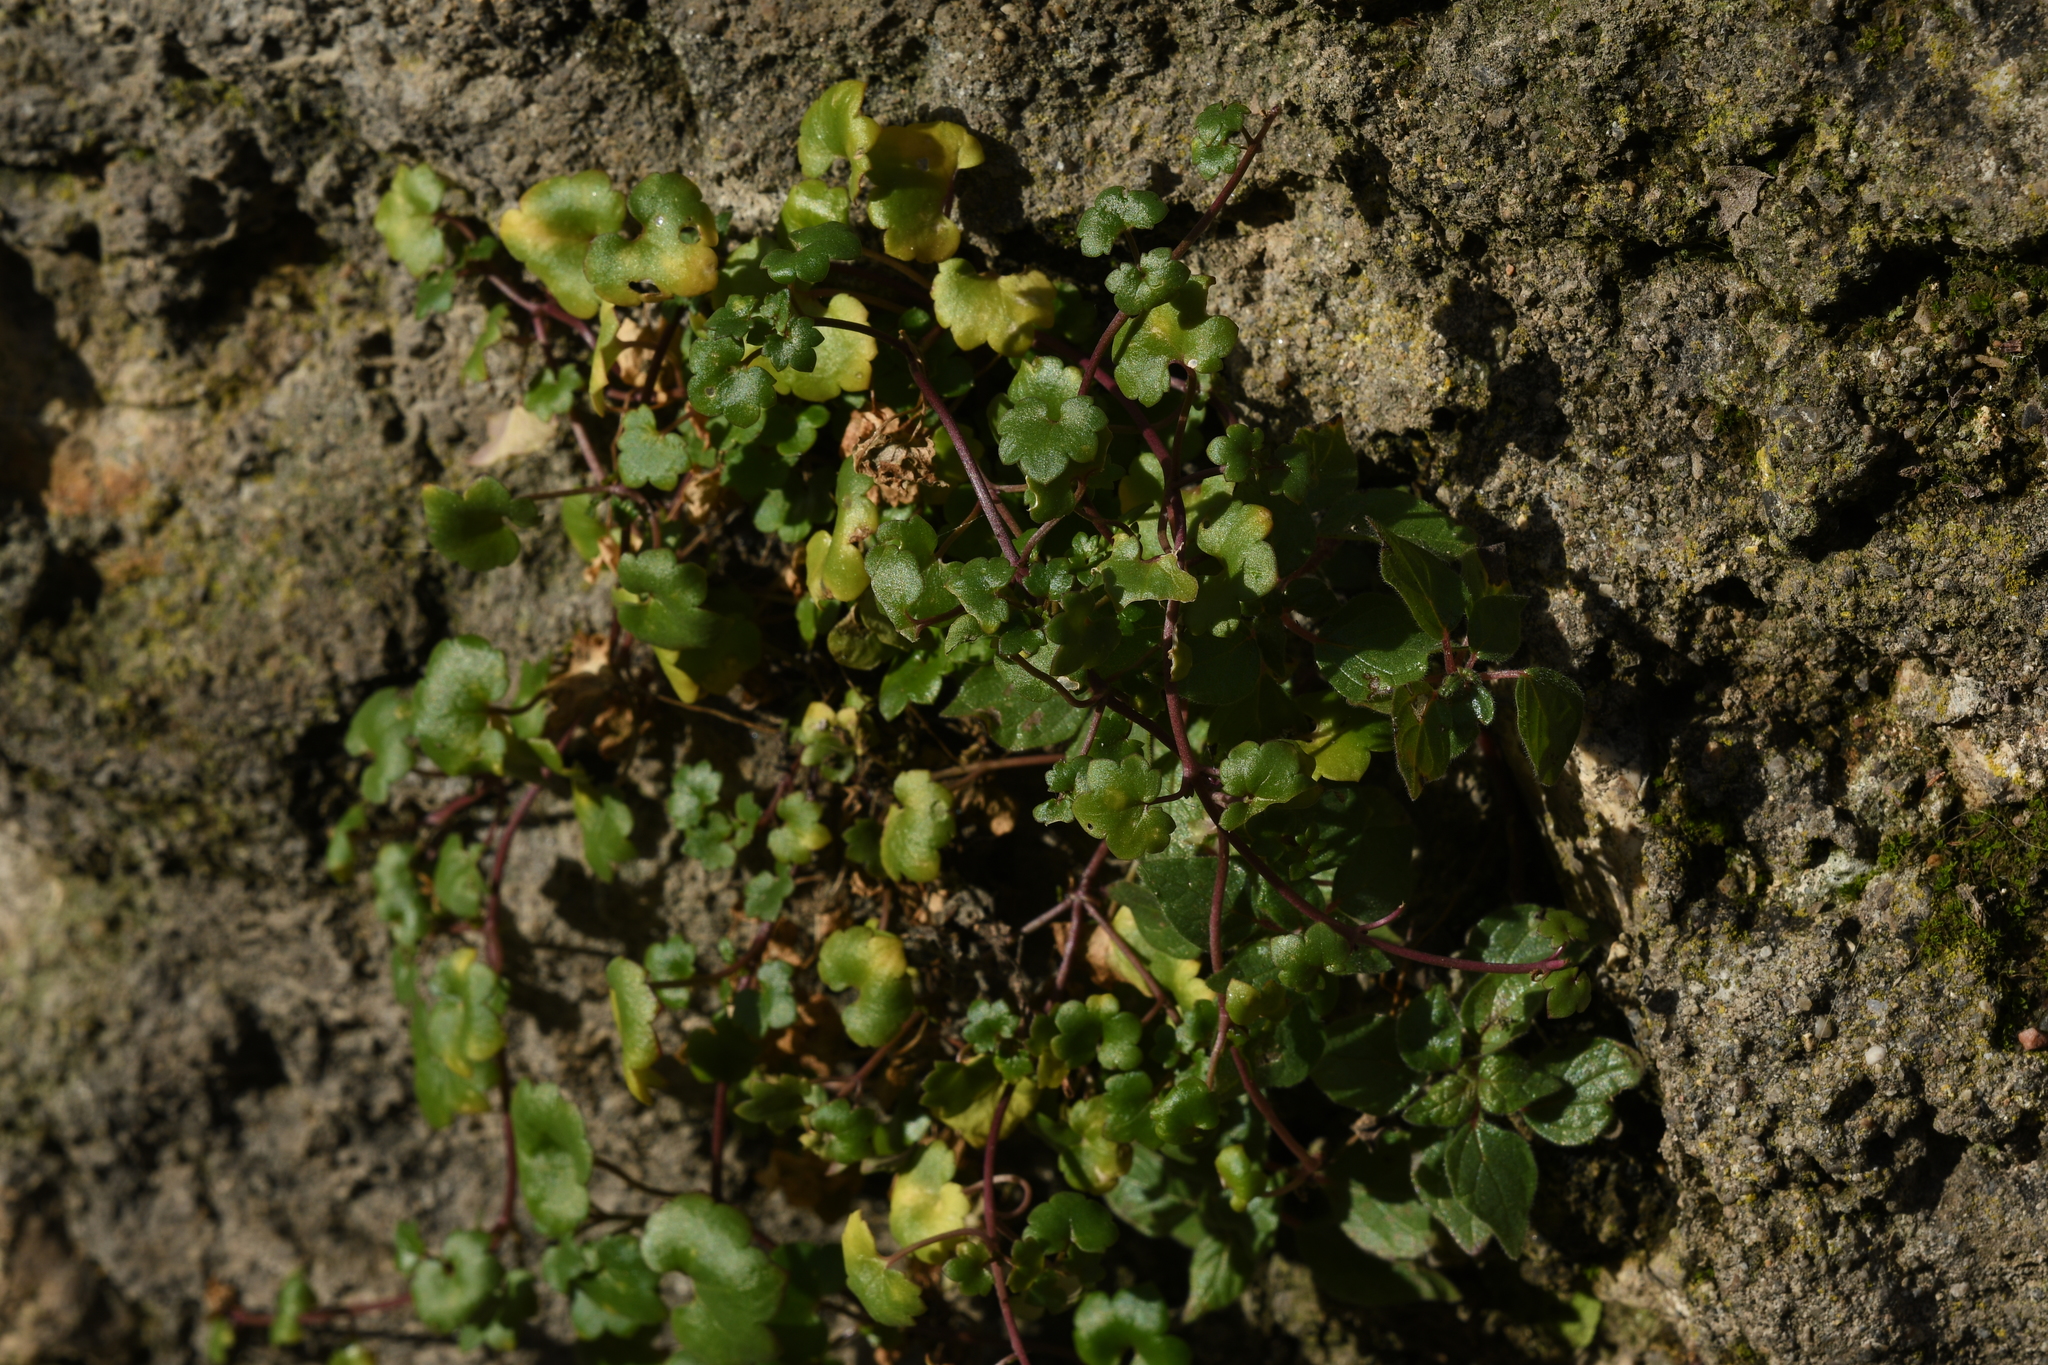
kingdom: Plantae
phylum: Tracheophyta
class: Magnoliopsida
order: Lamiales
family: Plantaginaceae
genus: Cymbalaria
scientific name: Cymbalaria muralis
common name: Ivy-leaved toadflax
